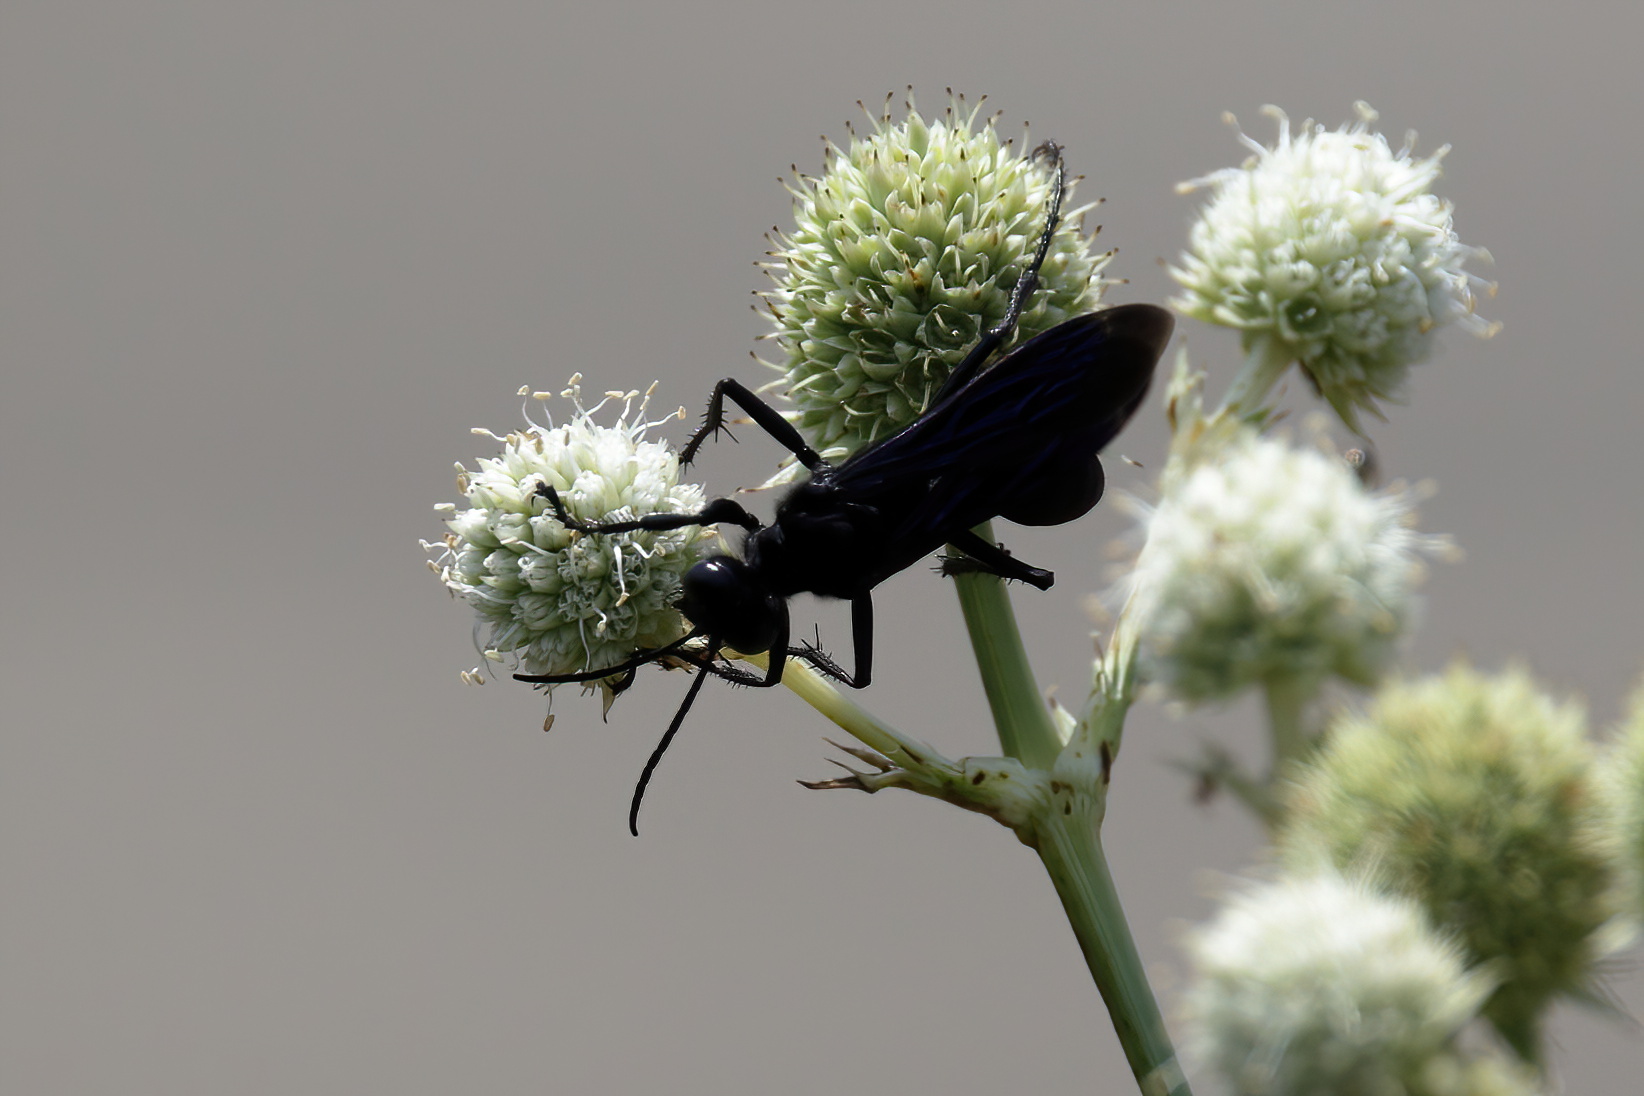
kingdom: Animalia
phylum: Arthropoda
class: Insecta
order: Hymenoptera
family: Sphecidae
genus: Sphex
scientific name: Sphex pensylvanicus
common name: Great black digger wasp
